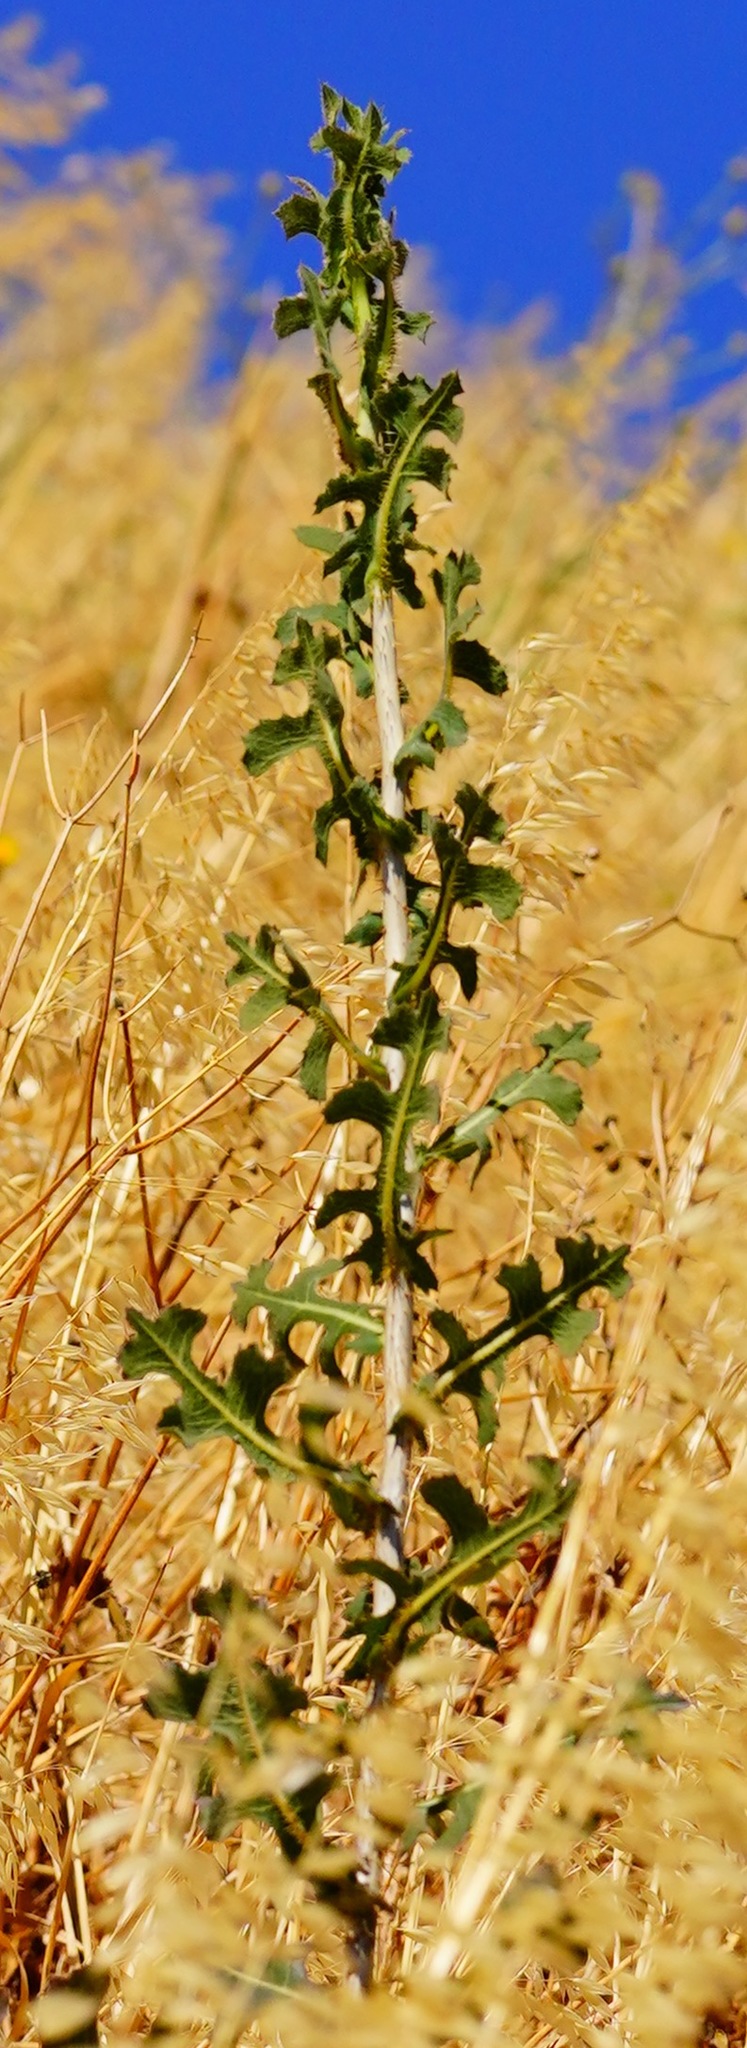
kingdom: Plantae
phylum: Tracheophyta
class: Magnoliopsida
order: Asterales
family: Asteraceae
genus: Lactuca
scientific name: Lactuca serriola
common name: Prickly lettuce
